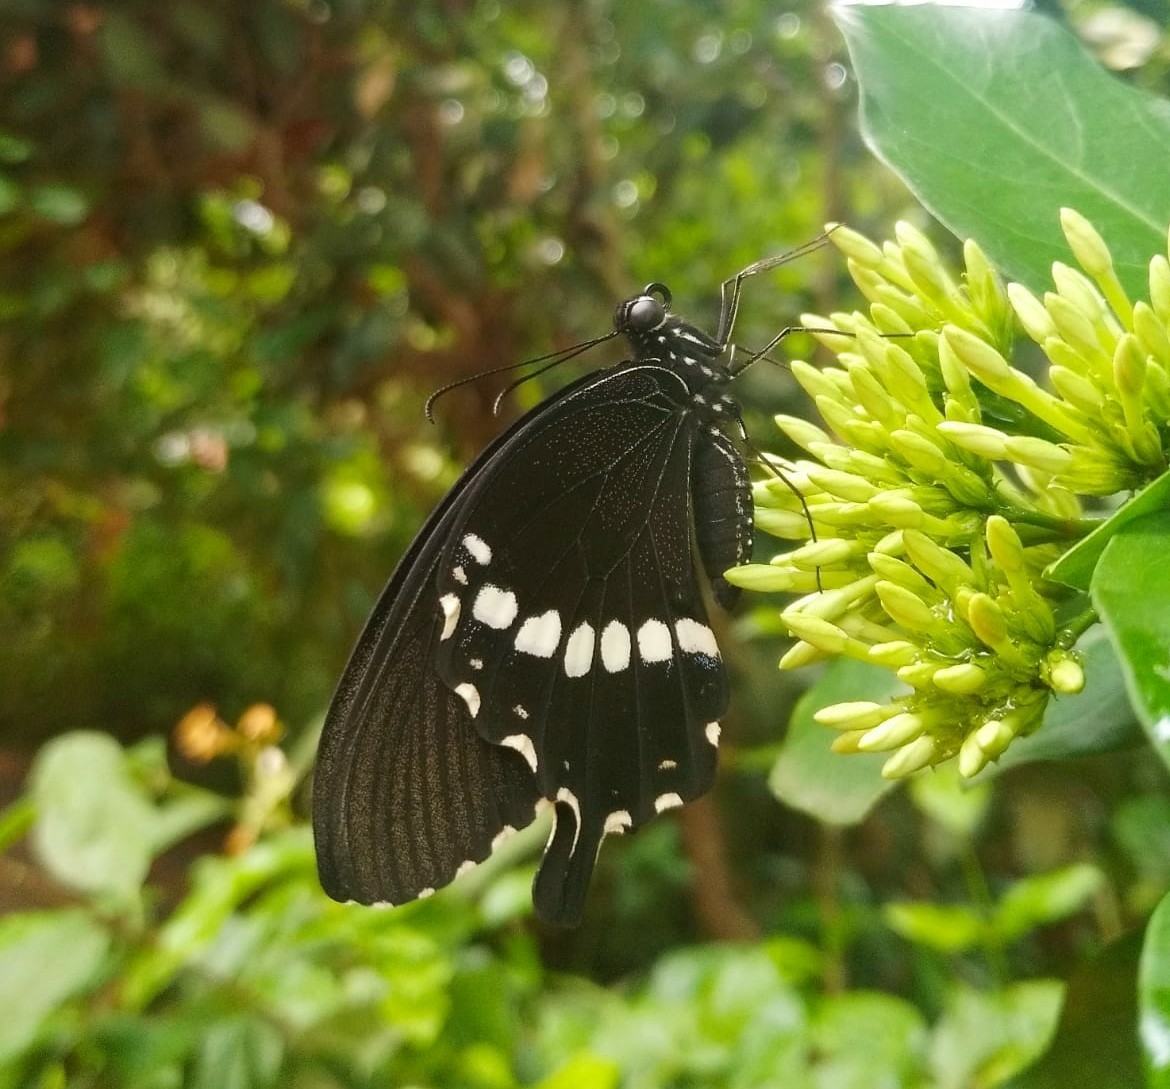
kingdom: Animalia
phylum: Arthropoda
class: Insecta
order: Lepidoptera
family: Papilionidae
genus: Papilio
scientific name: Papilio polytes
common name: Common mormon
